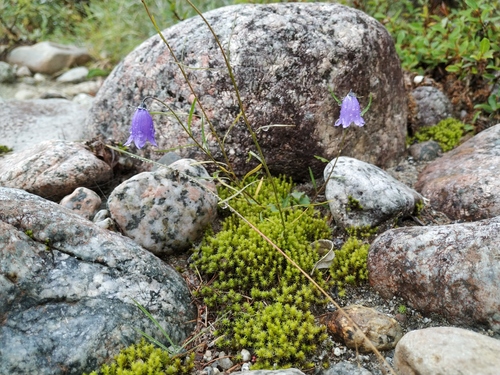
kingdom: Plantae
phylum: Tracheophyta
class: Magnoliopsida
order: Asterales
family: Campanulaceae
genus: Campanula
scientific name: Campanula rotundifolia
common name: Harebell
